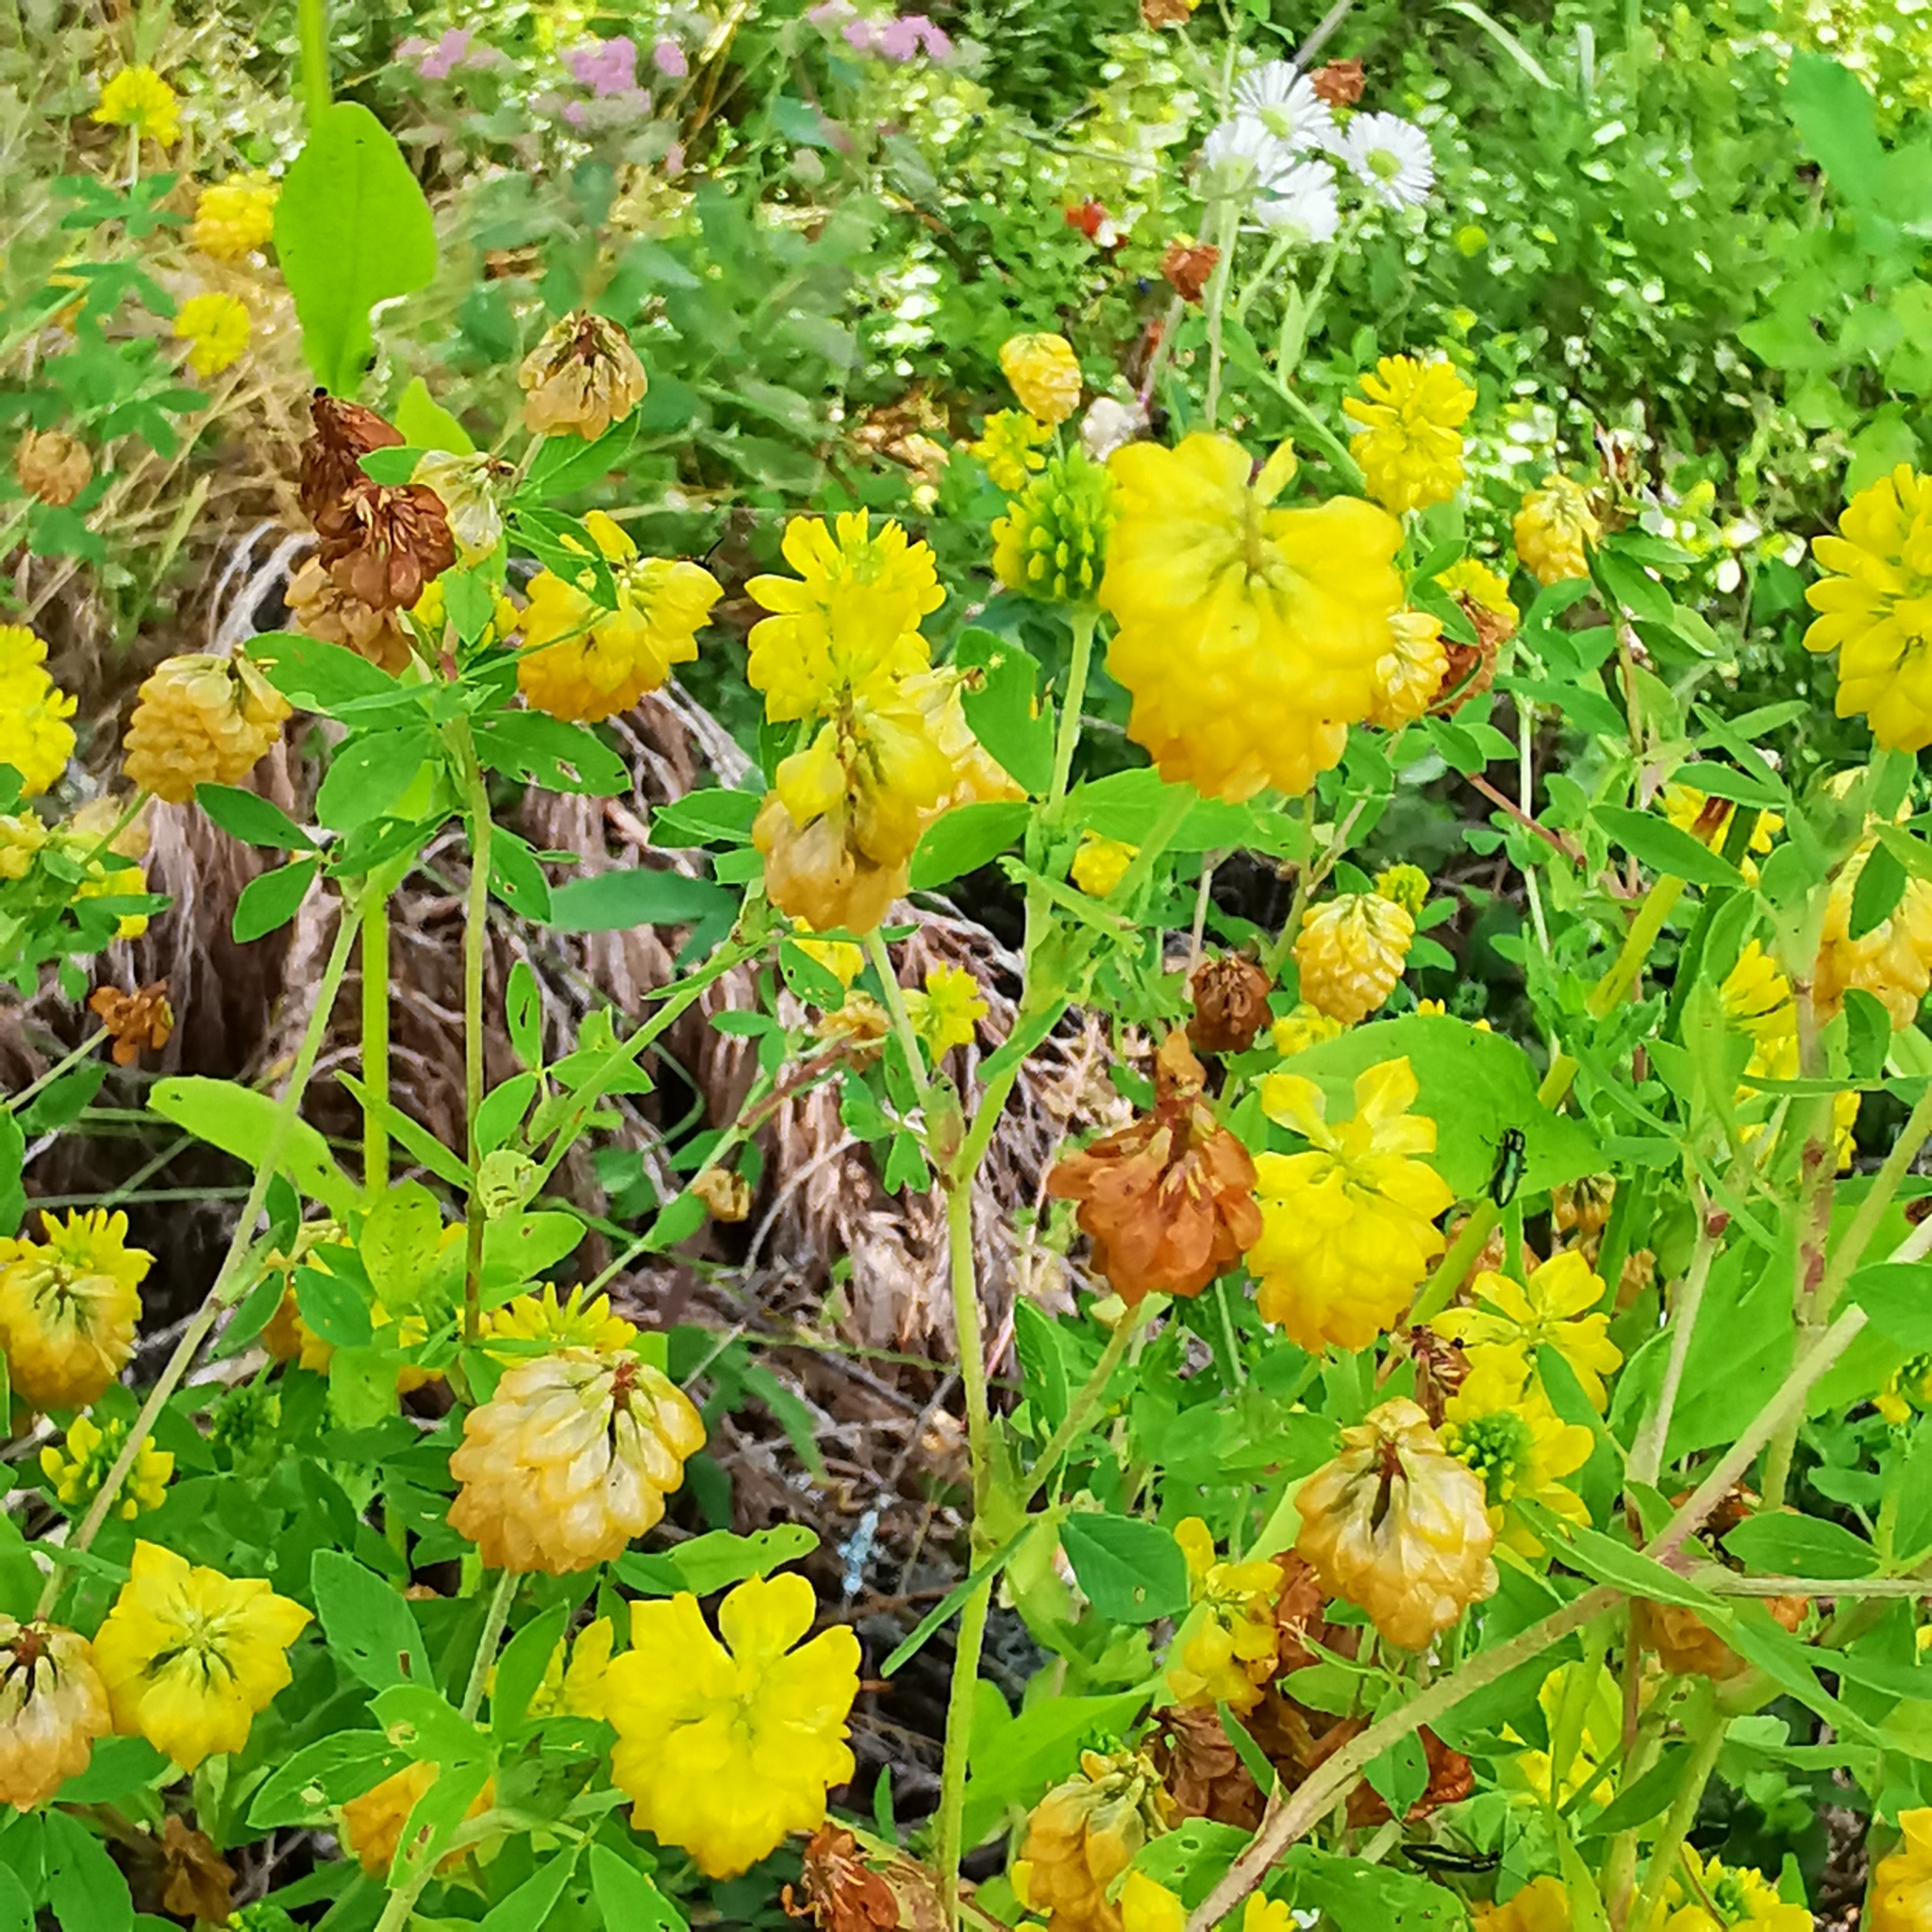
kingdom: Plantae
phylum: Tracheophyta
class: Magnoliopsida
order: Fabales
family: Fabaceae
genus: Trifolium
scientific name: Trifolium aureum
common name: Golden clover
